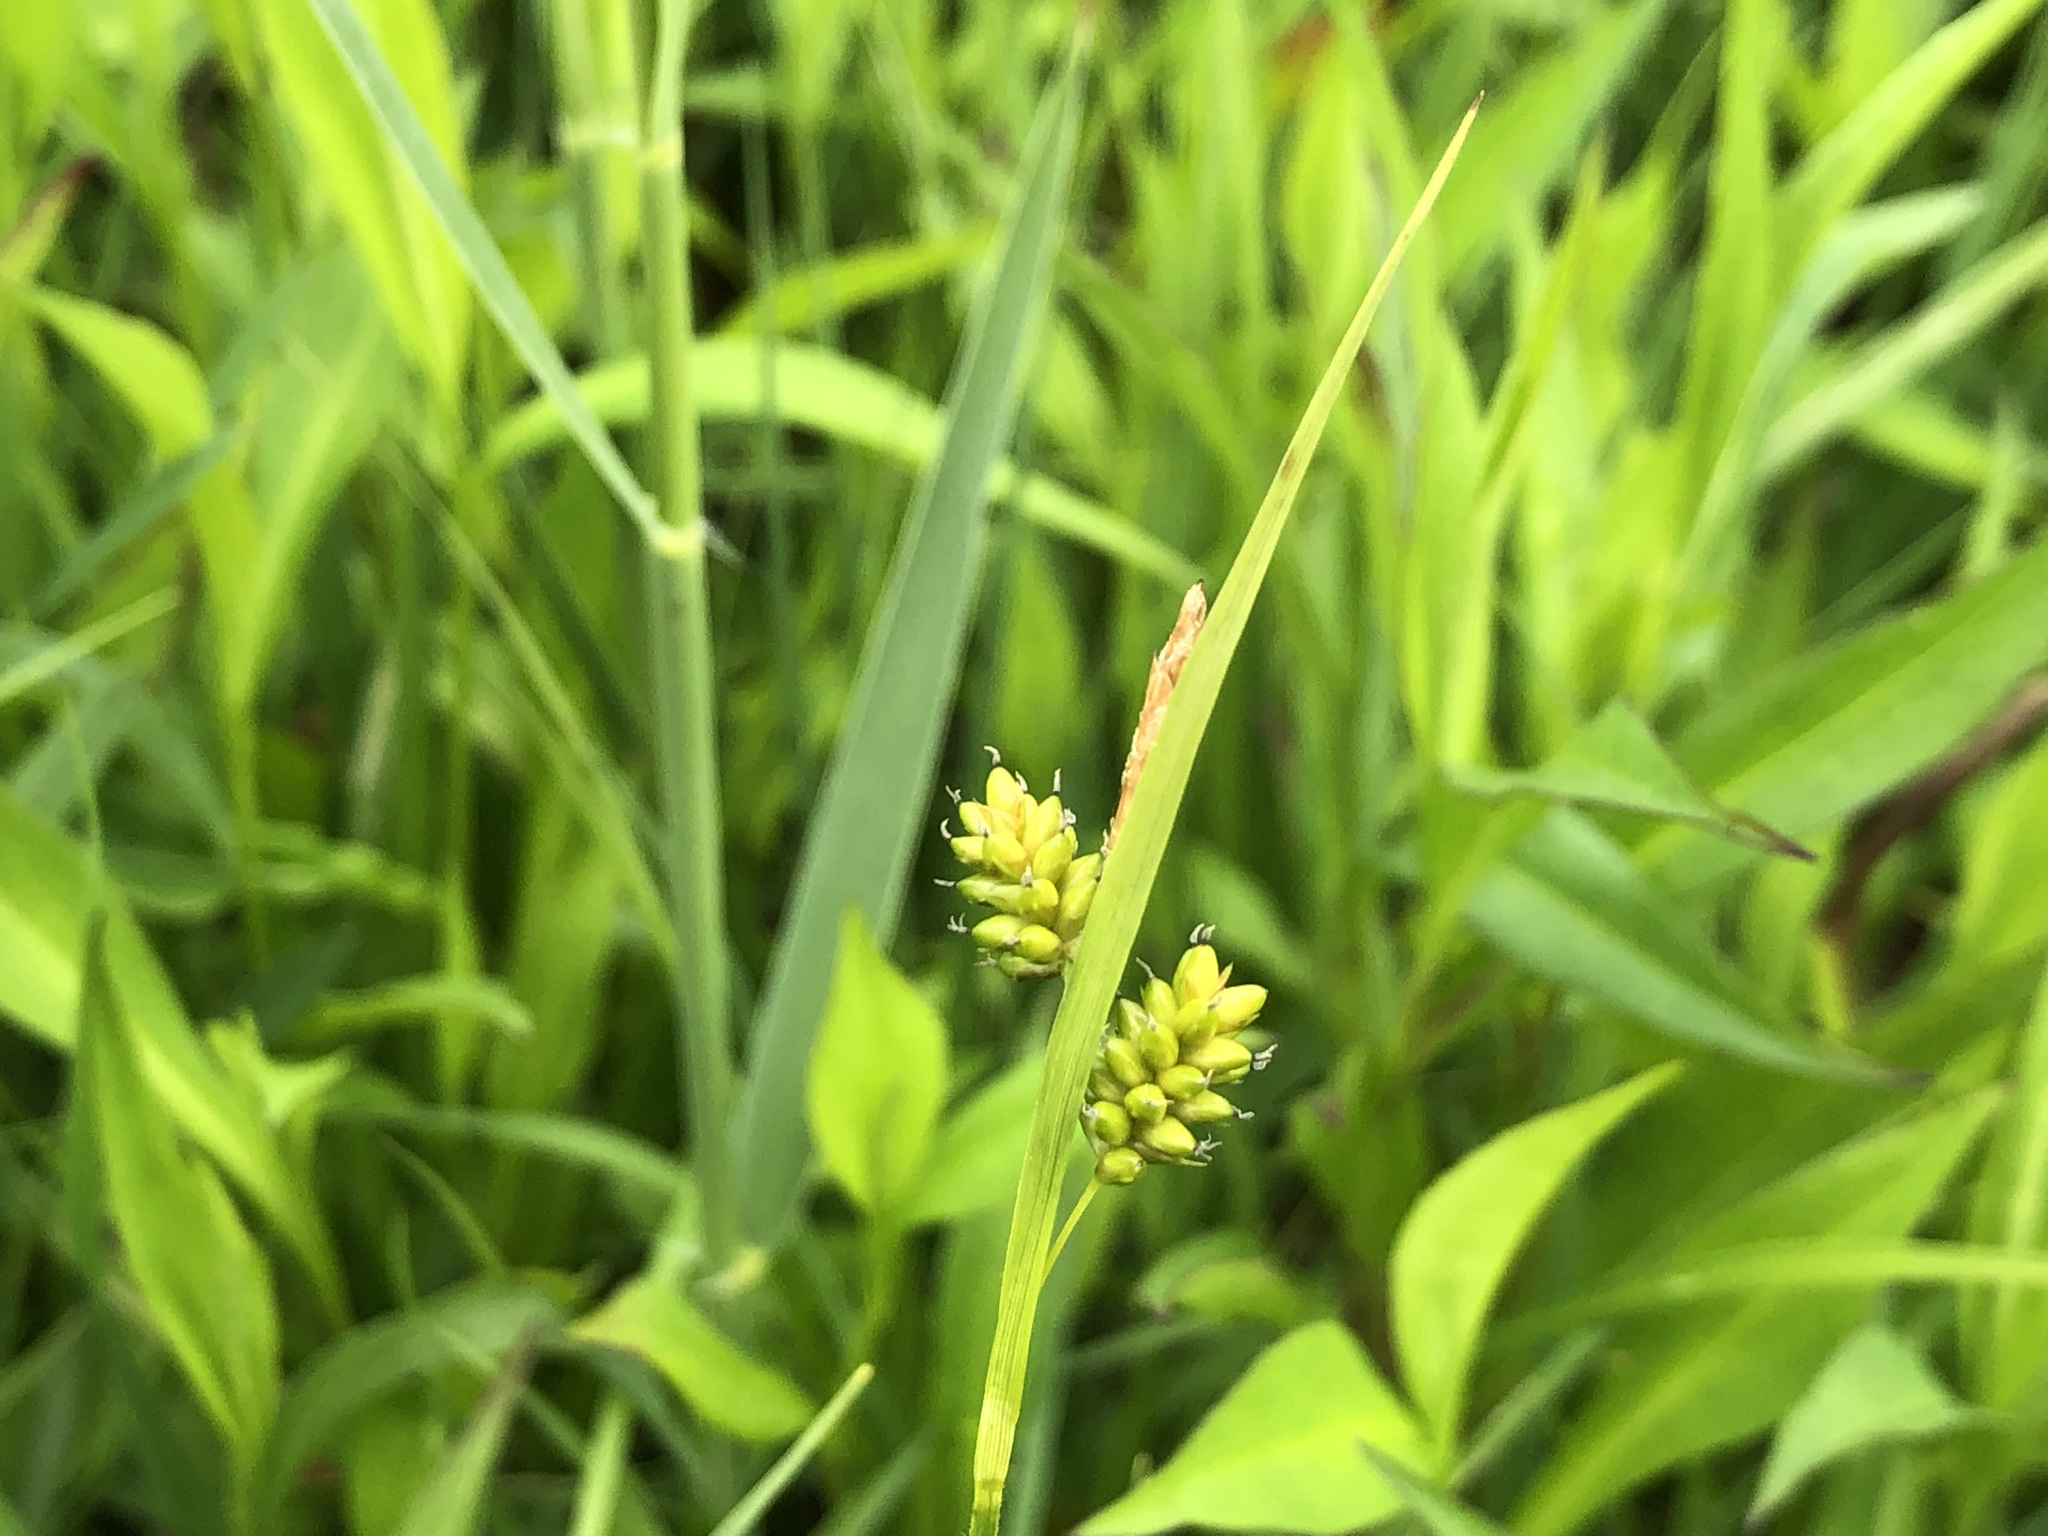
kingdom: Plantae
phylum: Tracheophyta
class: Liliopsida
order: Poales
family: Cyperaceae
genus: Carex
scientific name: Carex pallescens
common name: Pale sedge
